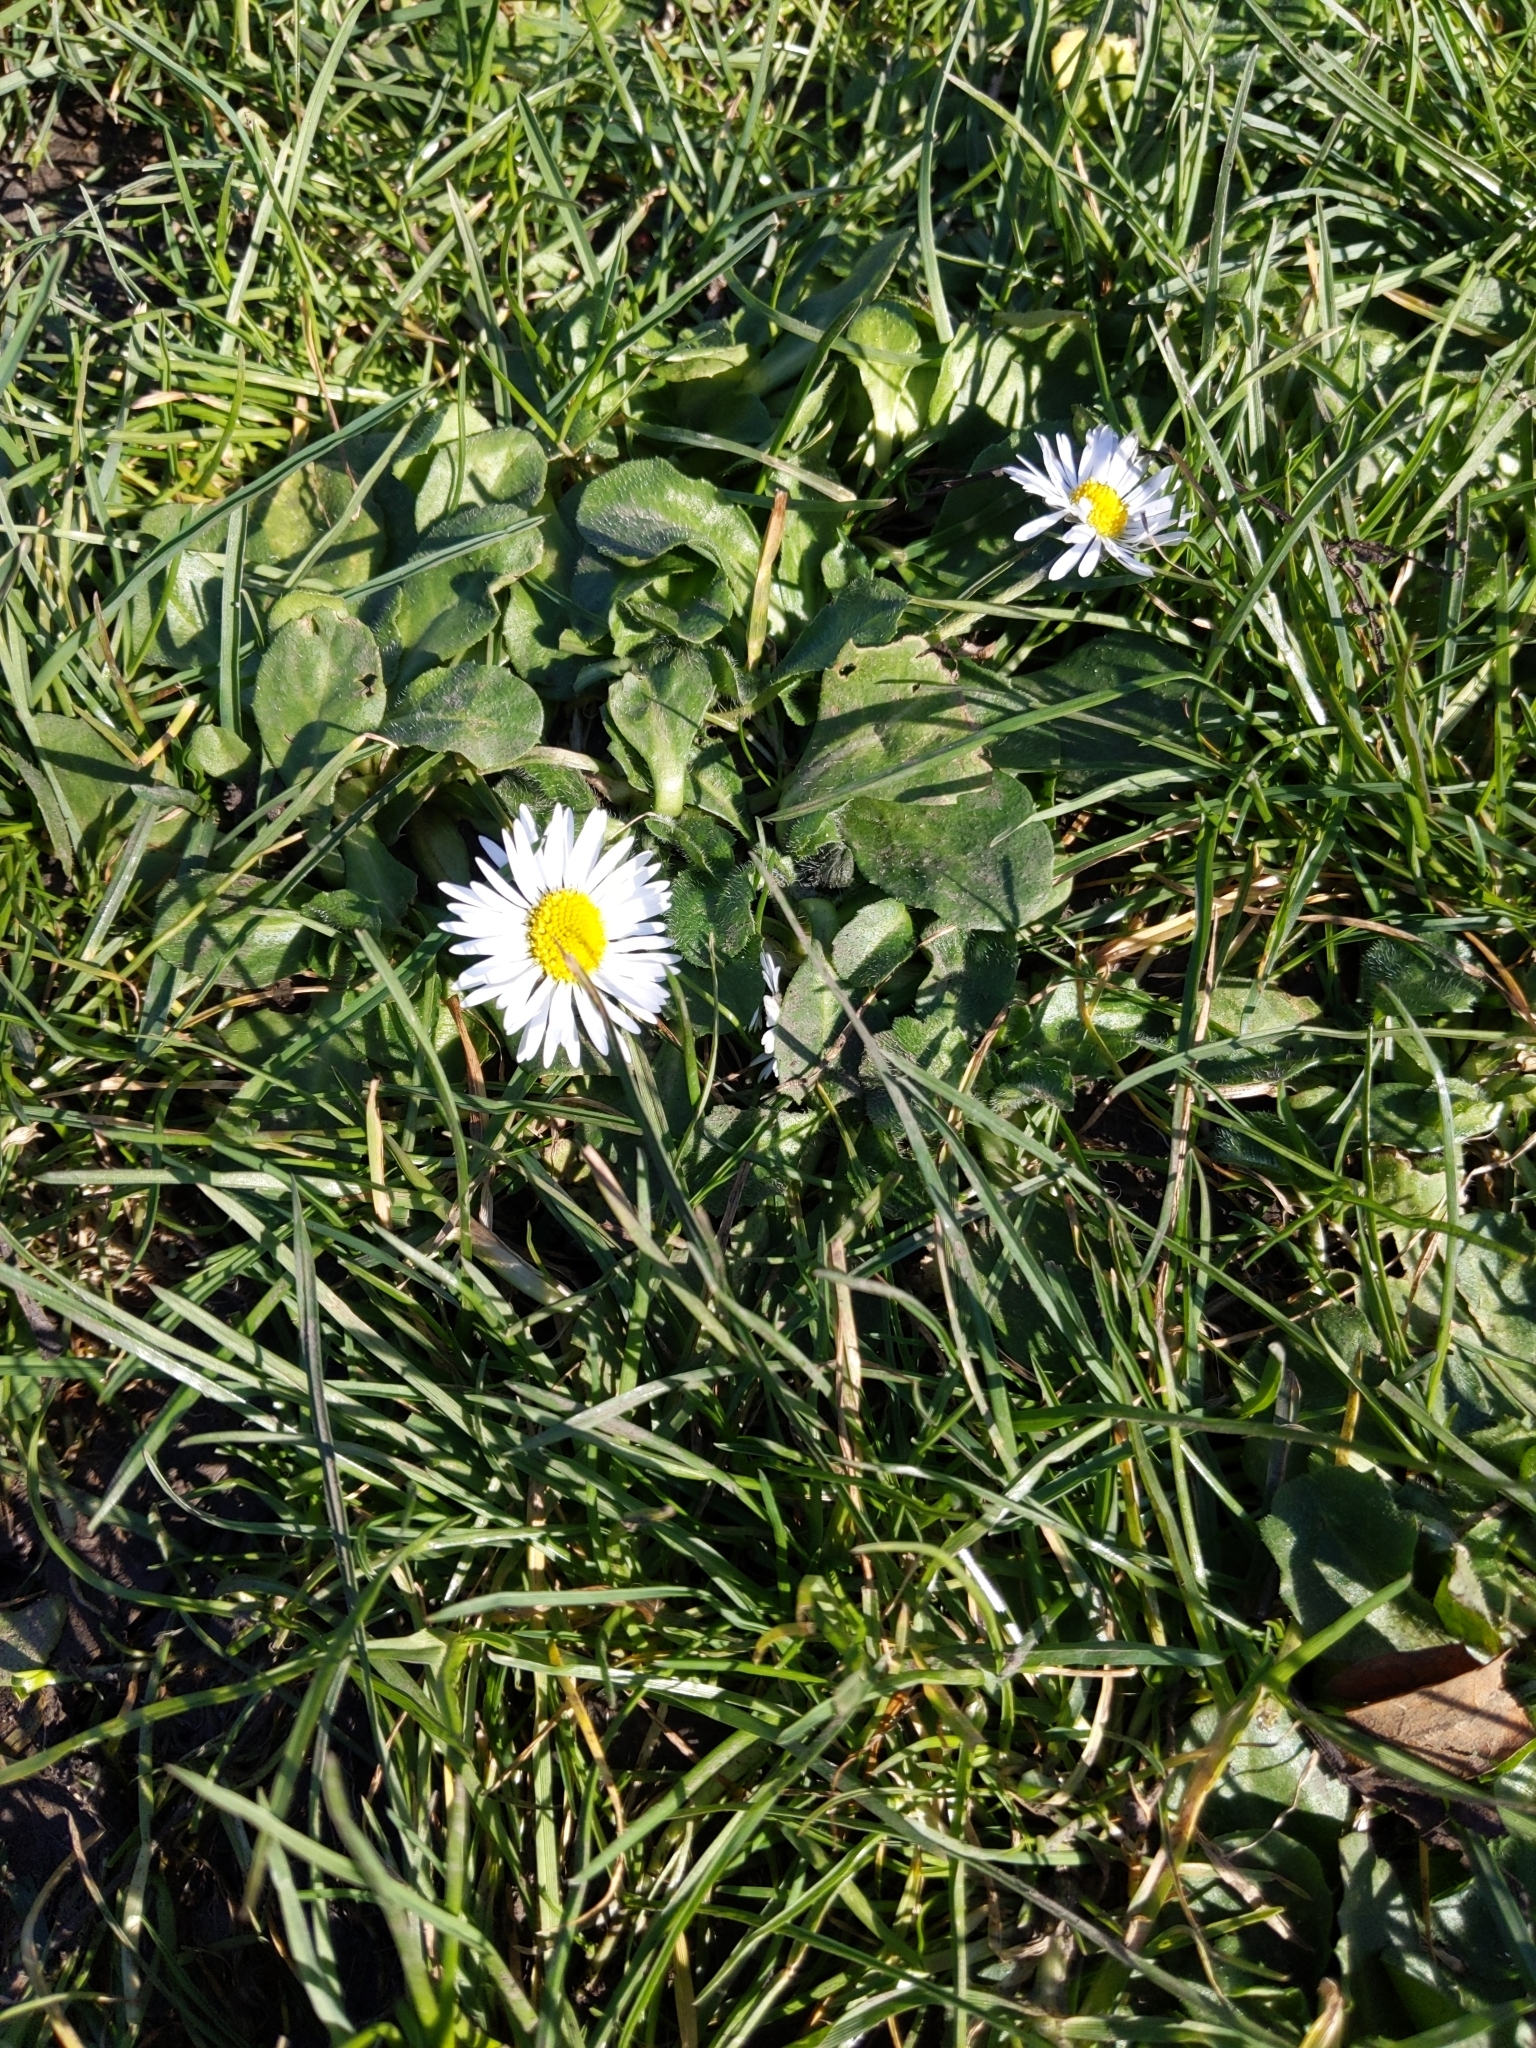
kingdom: Plantae
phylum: Tracheophyta
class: Magnoliopsida
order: Asterales
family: Asteraceae
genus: Bellis
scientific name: Bellis perennis
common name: Lawndaisy
